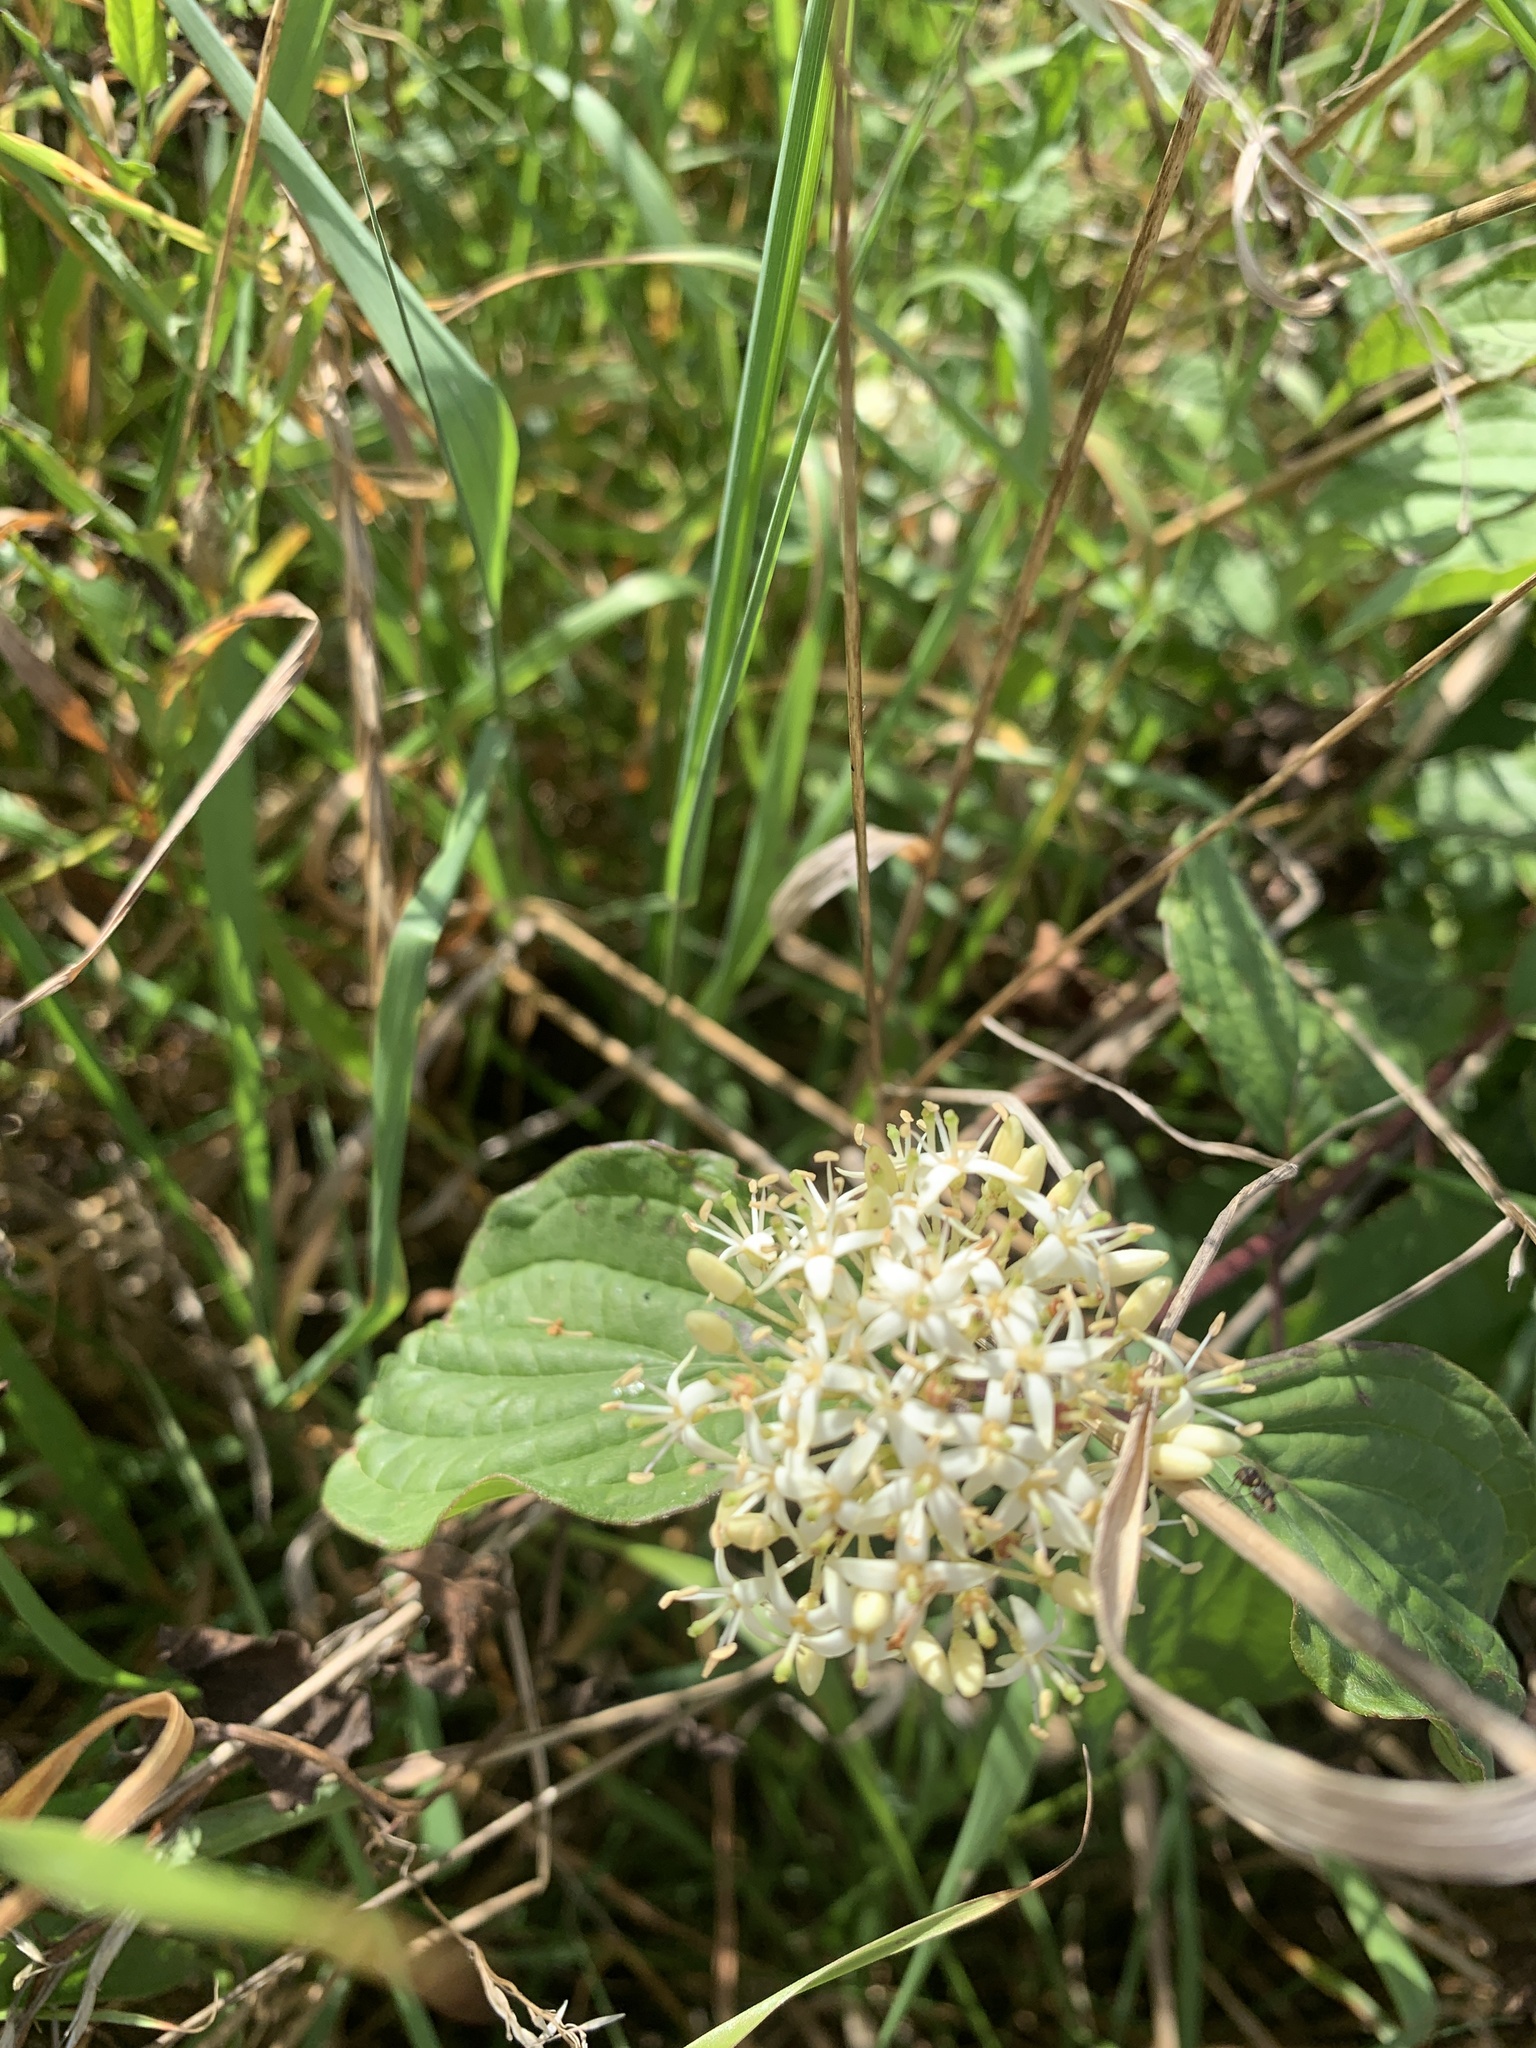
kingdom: Plantae
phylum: Tracheophyta
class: Magnoliopsida
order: Cornales
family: Cornaceae
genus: Cornus
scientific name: Cornus sanguinea
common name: Dogwood
